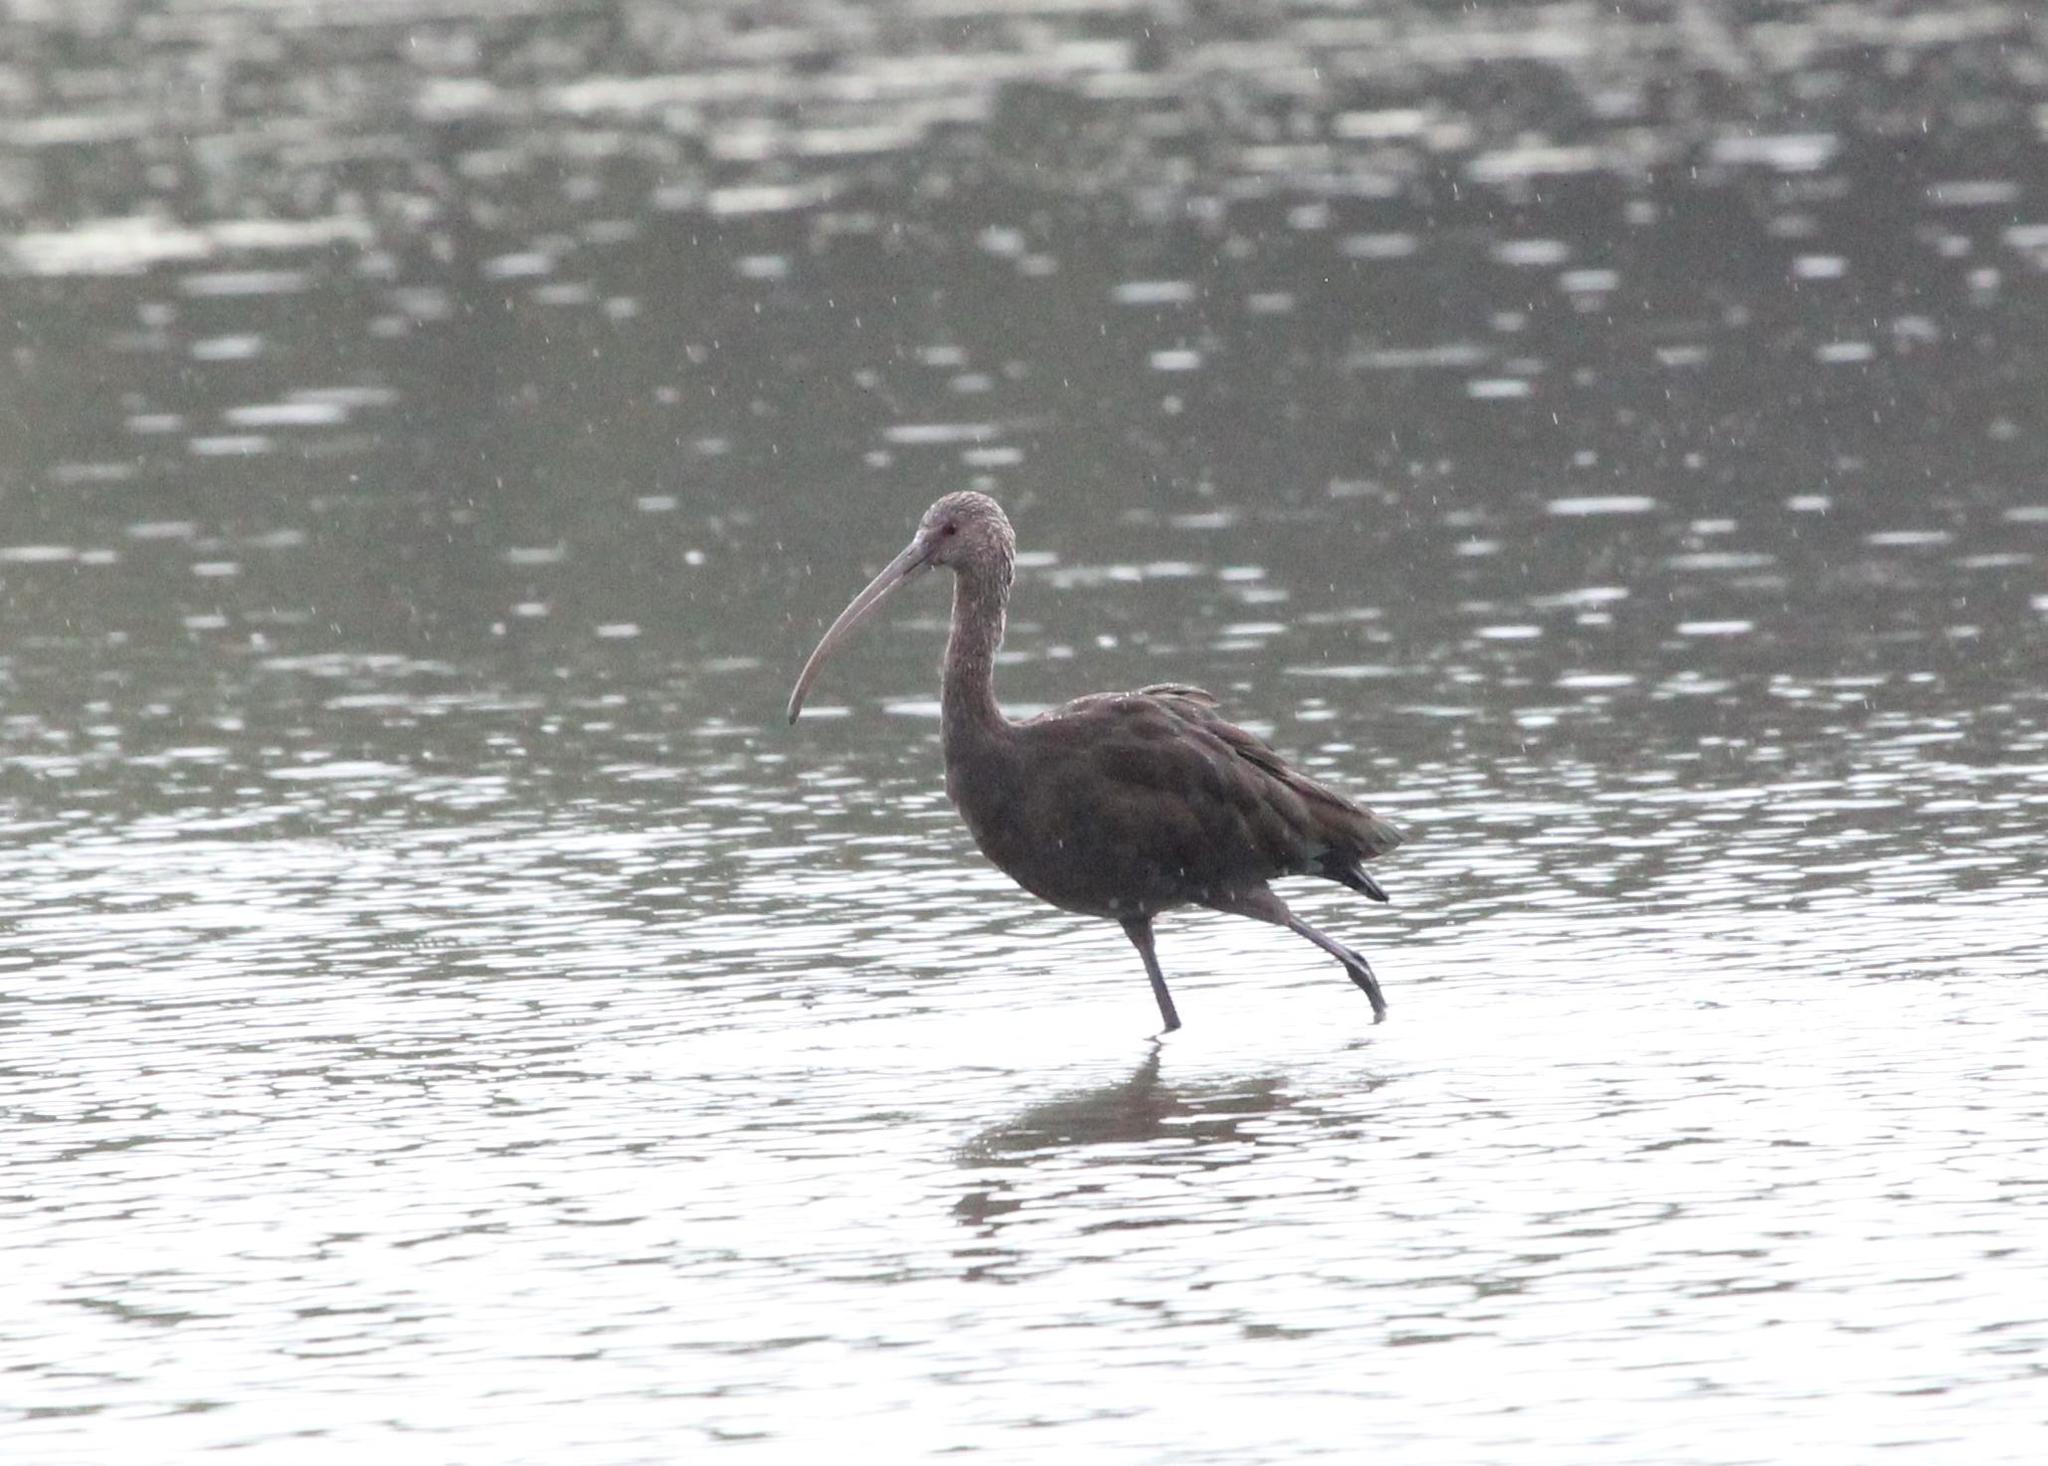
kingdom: Animalia
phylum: Chordata
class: Aves
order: Pelecaniformes
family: Threskiornithidae
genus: Plegadis
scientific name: Plegadis chihi
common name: White-faced ibis
